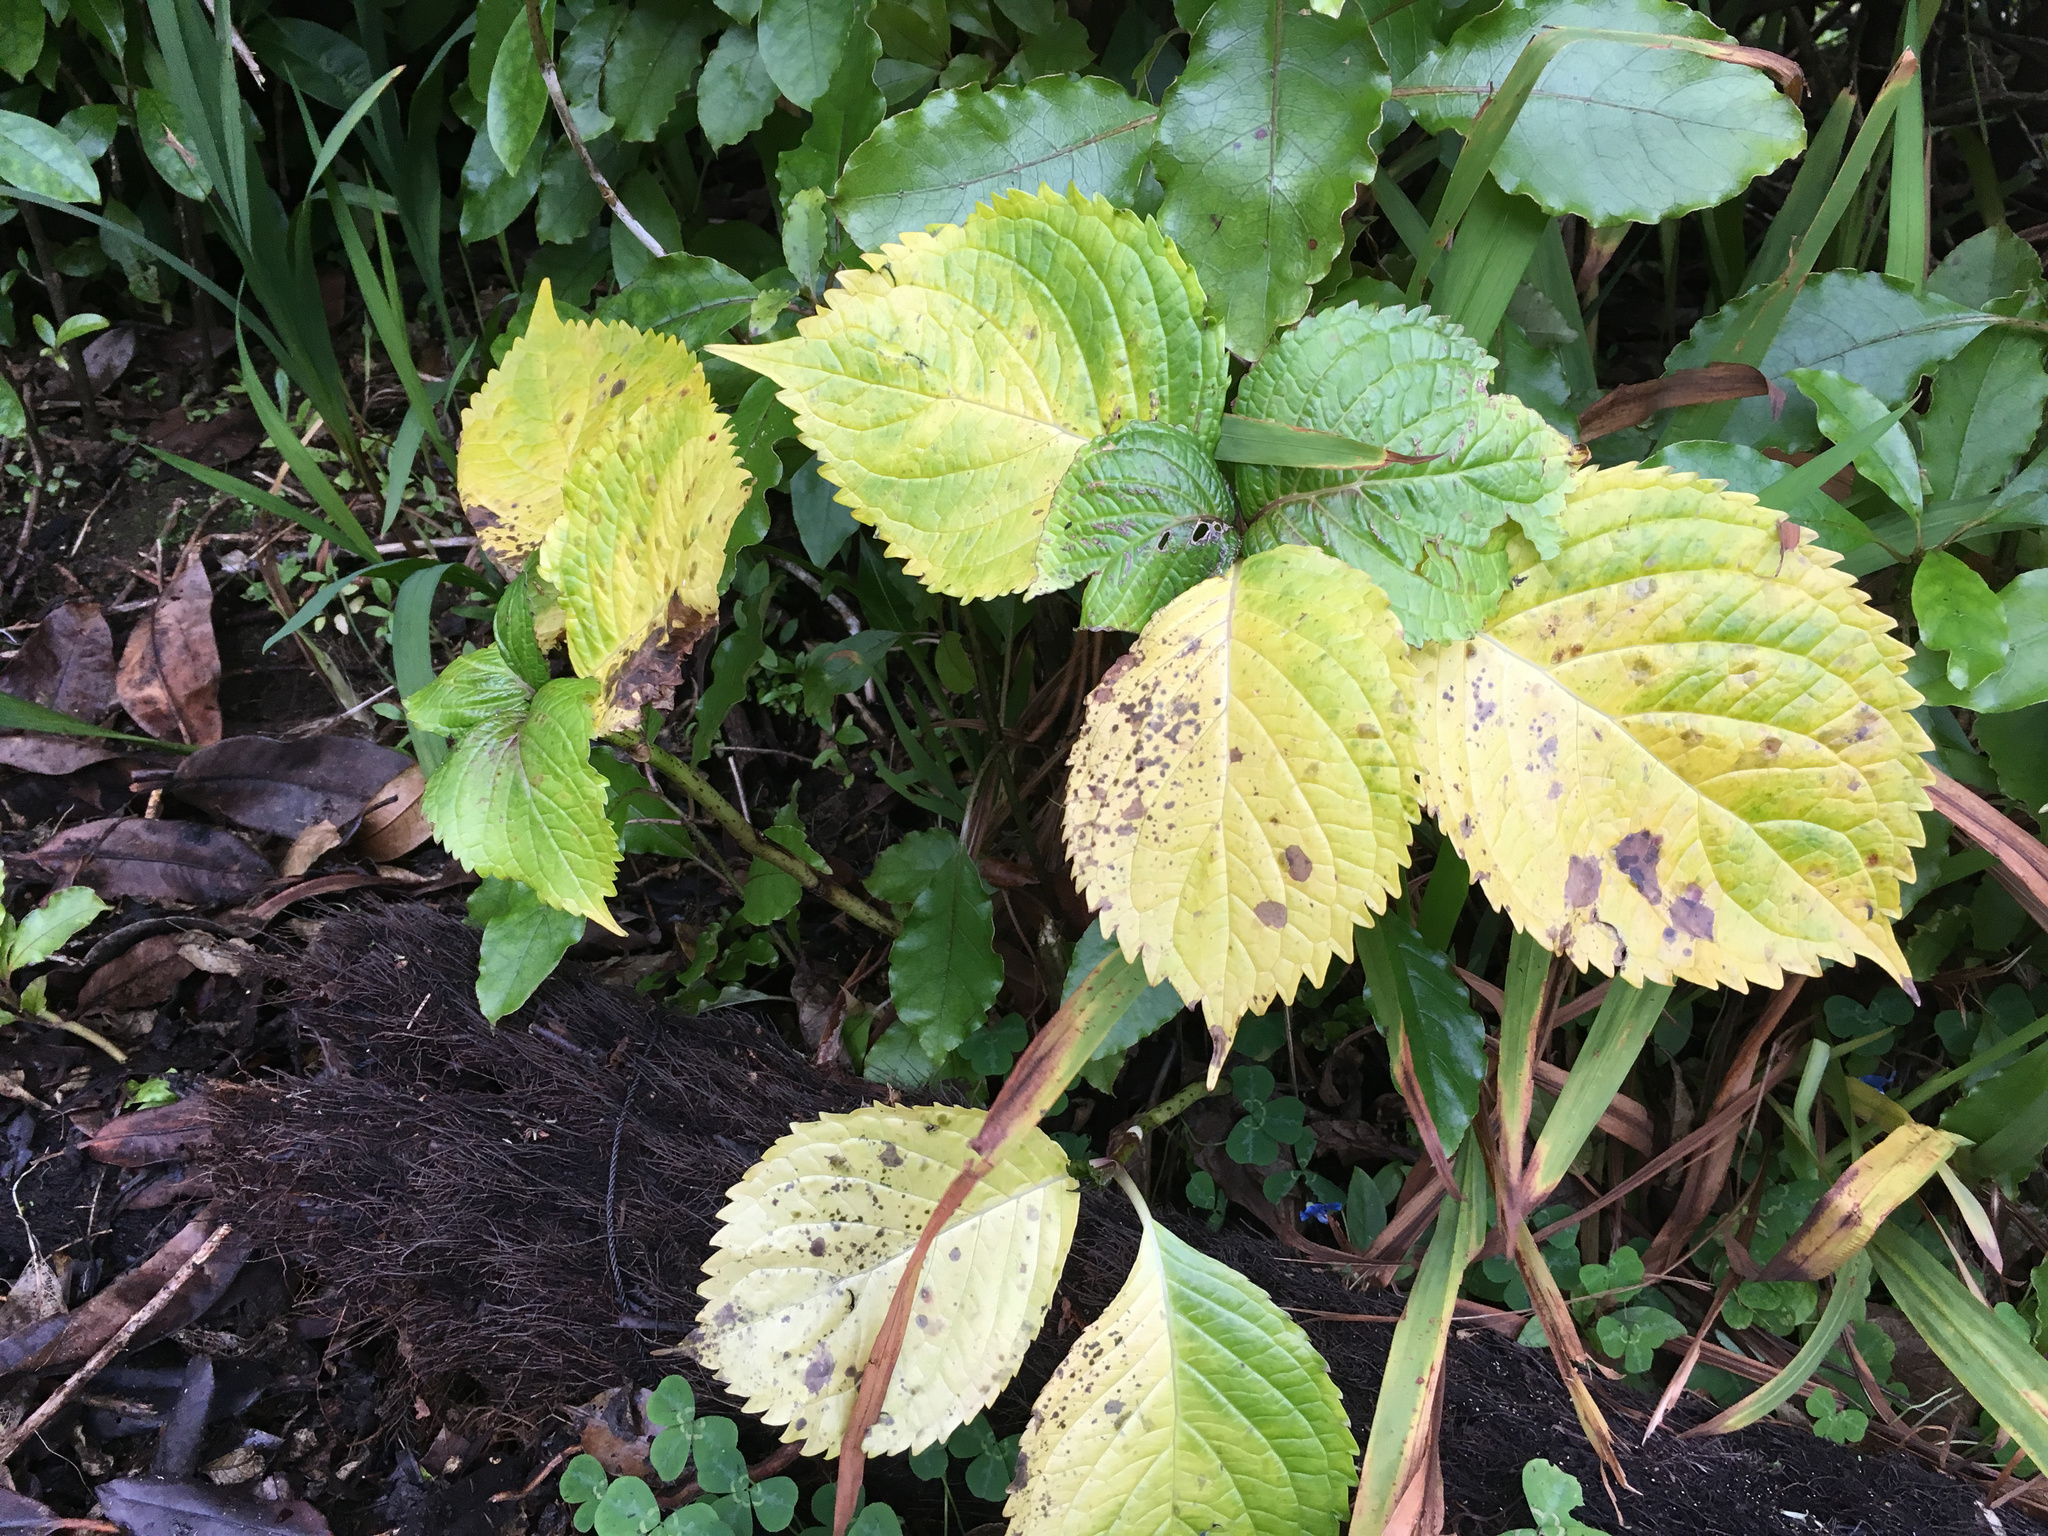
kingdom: Plantae
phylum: Tracheophyta
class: Magnoliopsida
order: Cornales
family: Hydrangeaceae
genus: Hydrangea
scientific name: Hydrangea macrophylla
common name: Hydrangea
